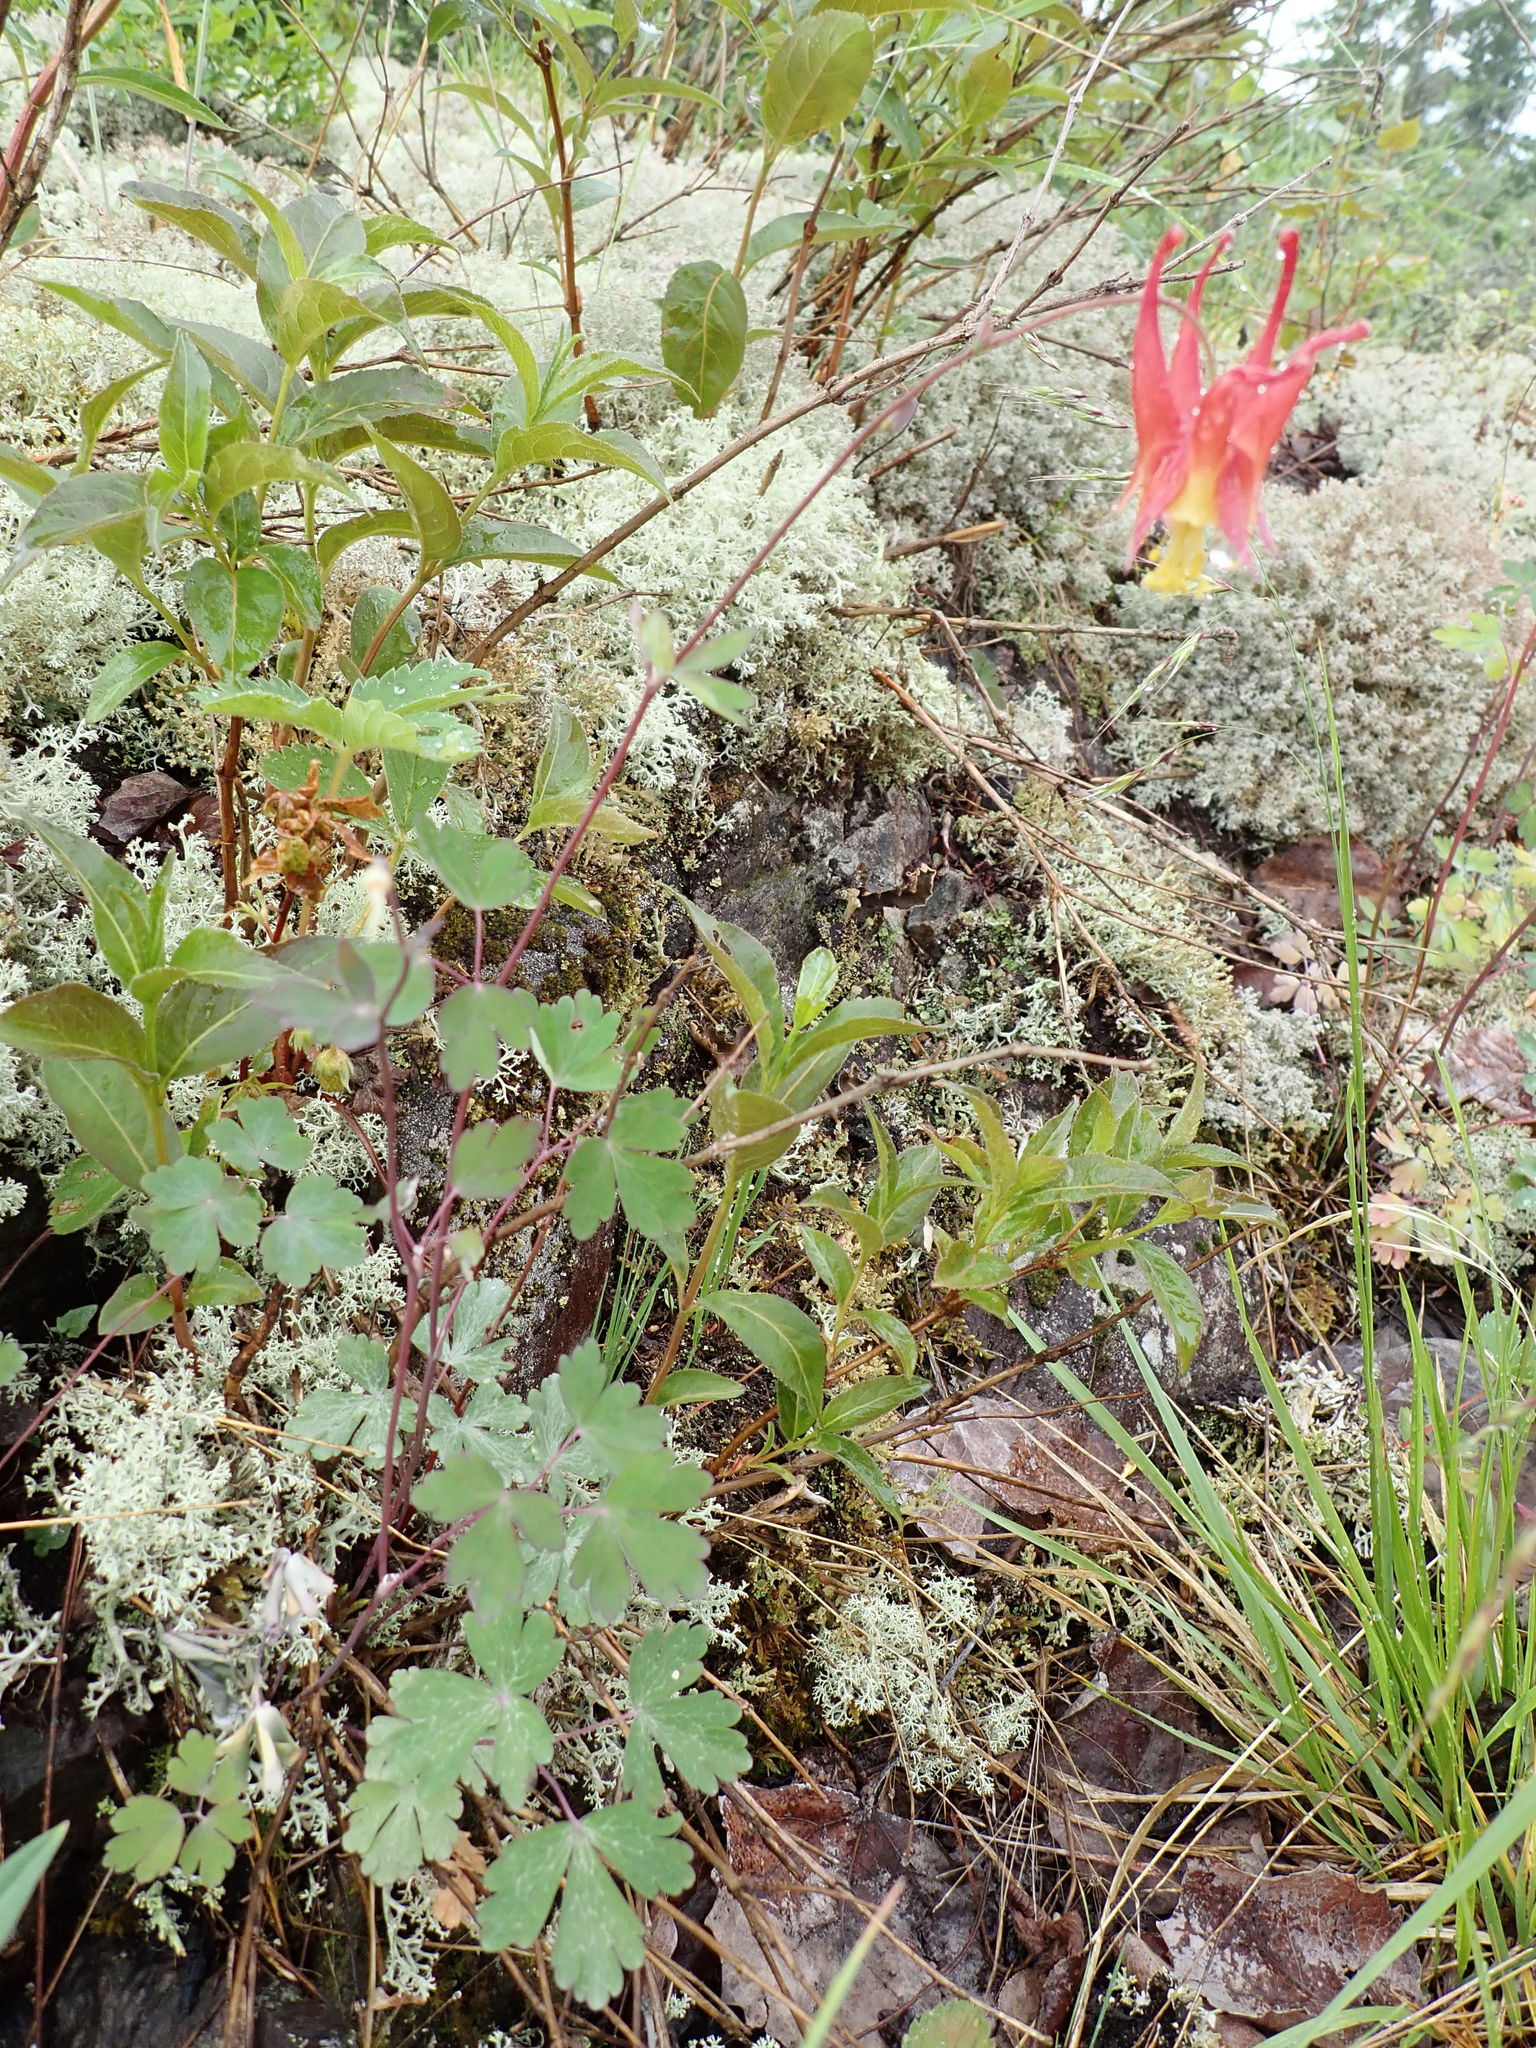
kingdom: Plantae
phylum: Tracheophyta
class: Magnoliopsida
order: Ranunculales
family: Ranunculaceae
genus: Aquilegia
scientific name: Aquilegia canadensis
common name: American columbine
